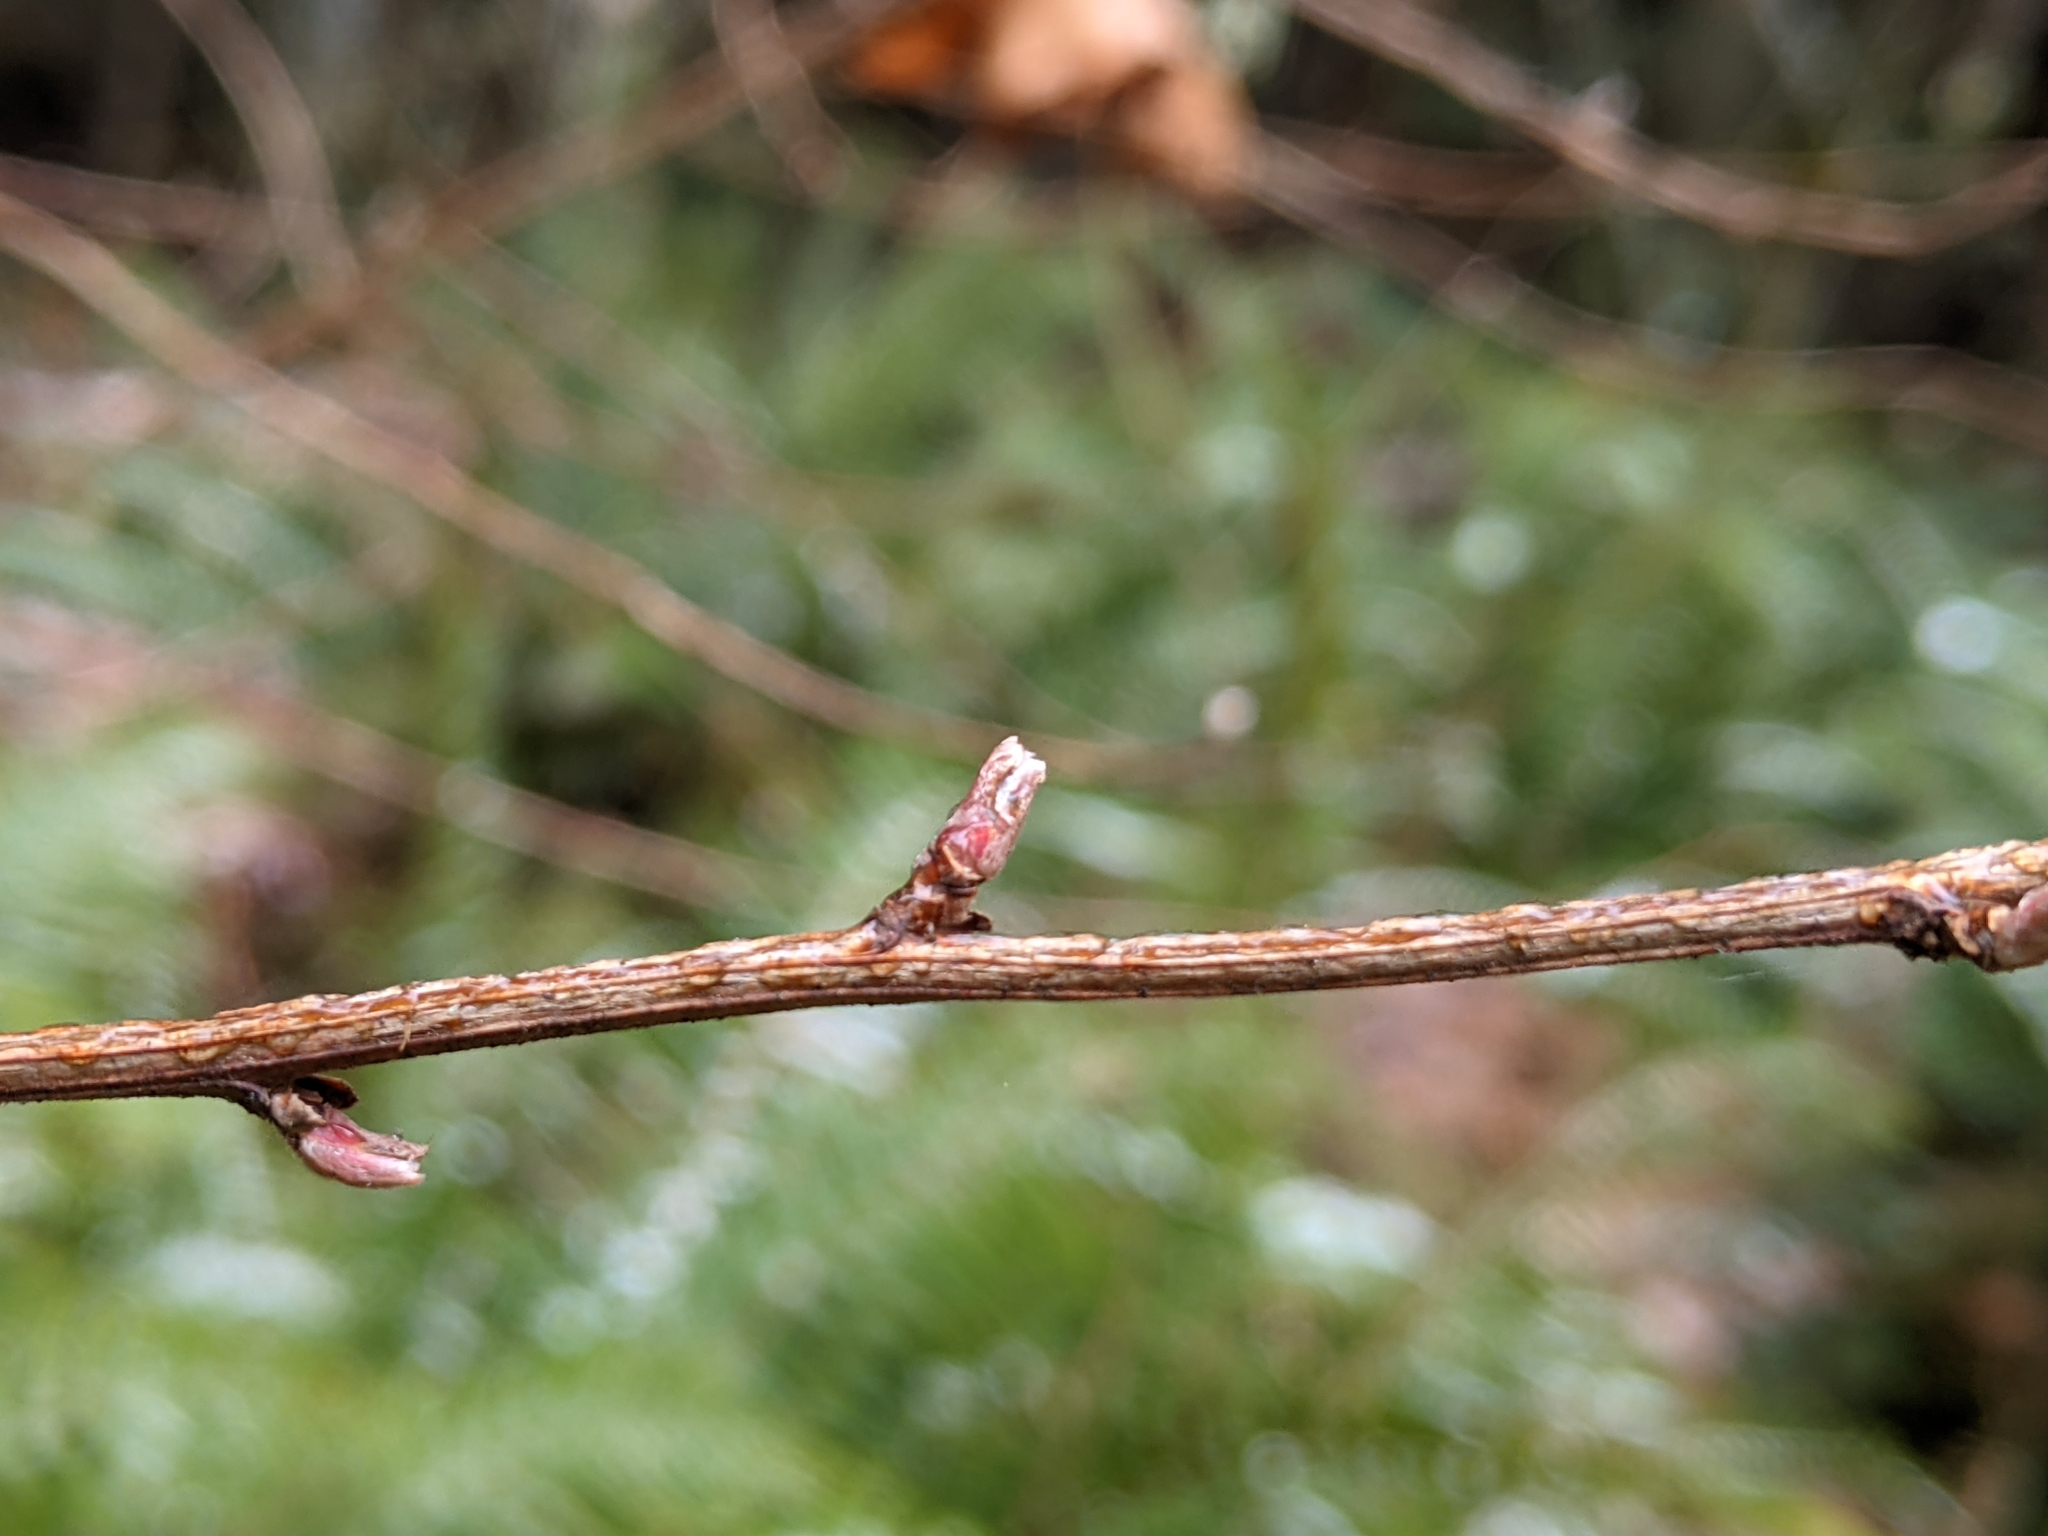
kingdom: Plantae
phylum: Tracheophyta
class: Magnoliopsida
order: Rosales
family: Rosaceae
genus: Holodiscus
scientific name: Holodiscus discolor
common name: Oceanspray
